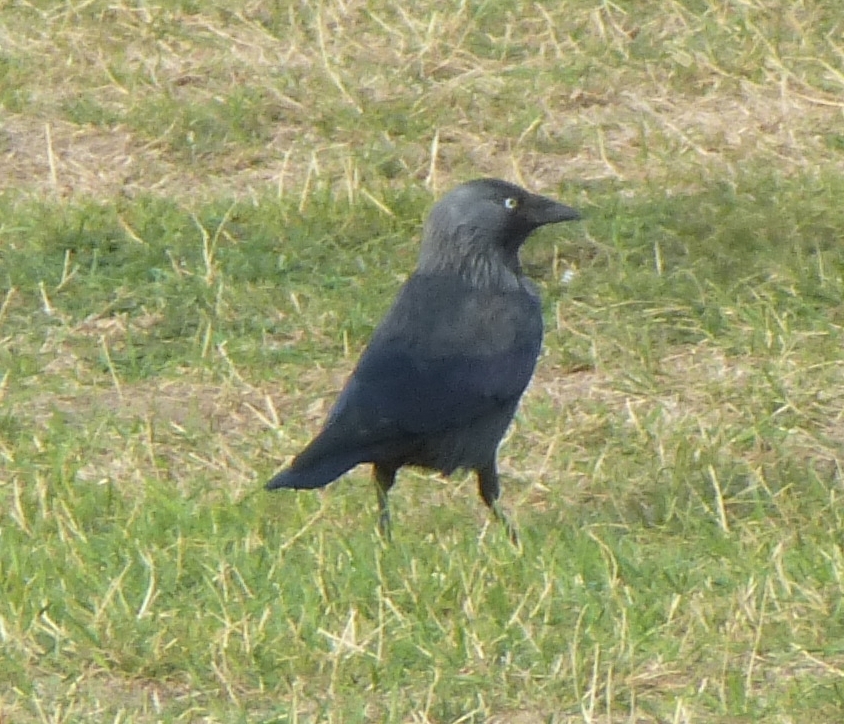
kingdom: Animalia
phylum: Chordata
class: Aves
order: Passeriformes
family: Corvidae
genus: Coloeus
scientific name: Coloeus monedula
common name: Western jackdaw
